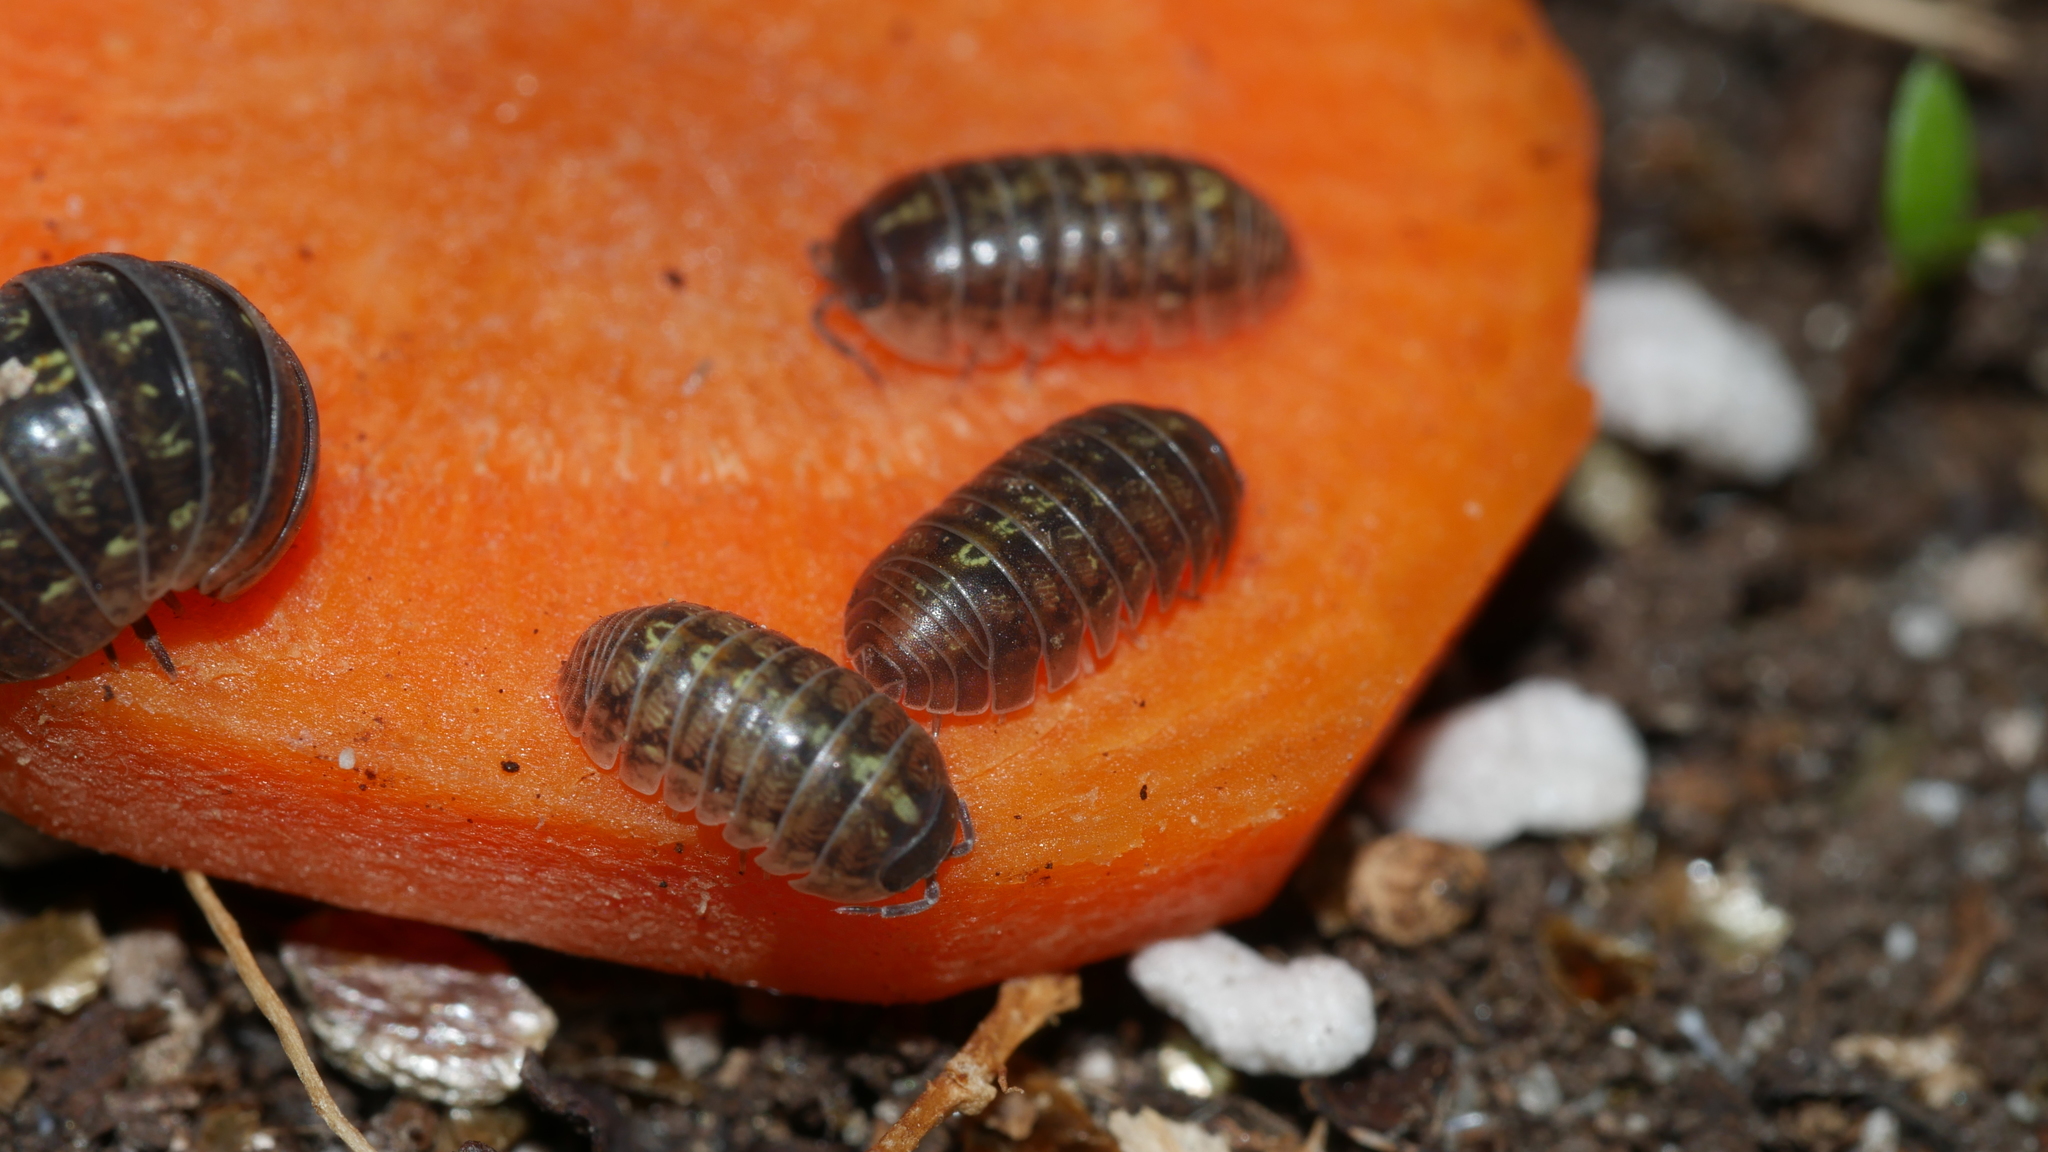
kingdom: Animalia
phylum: Arthropoda
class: Malacostraca
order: Isopoda
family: Armadillidiidae
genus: Armadillidium
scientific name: Armadillidium vulgare
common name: Common pill woodlouse
